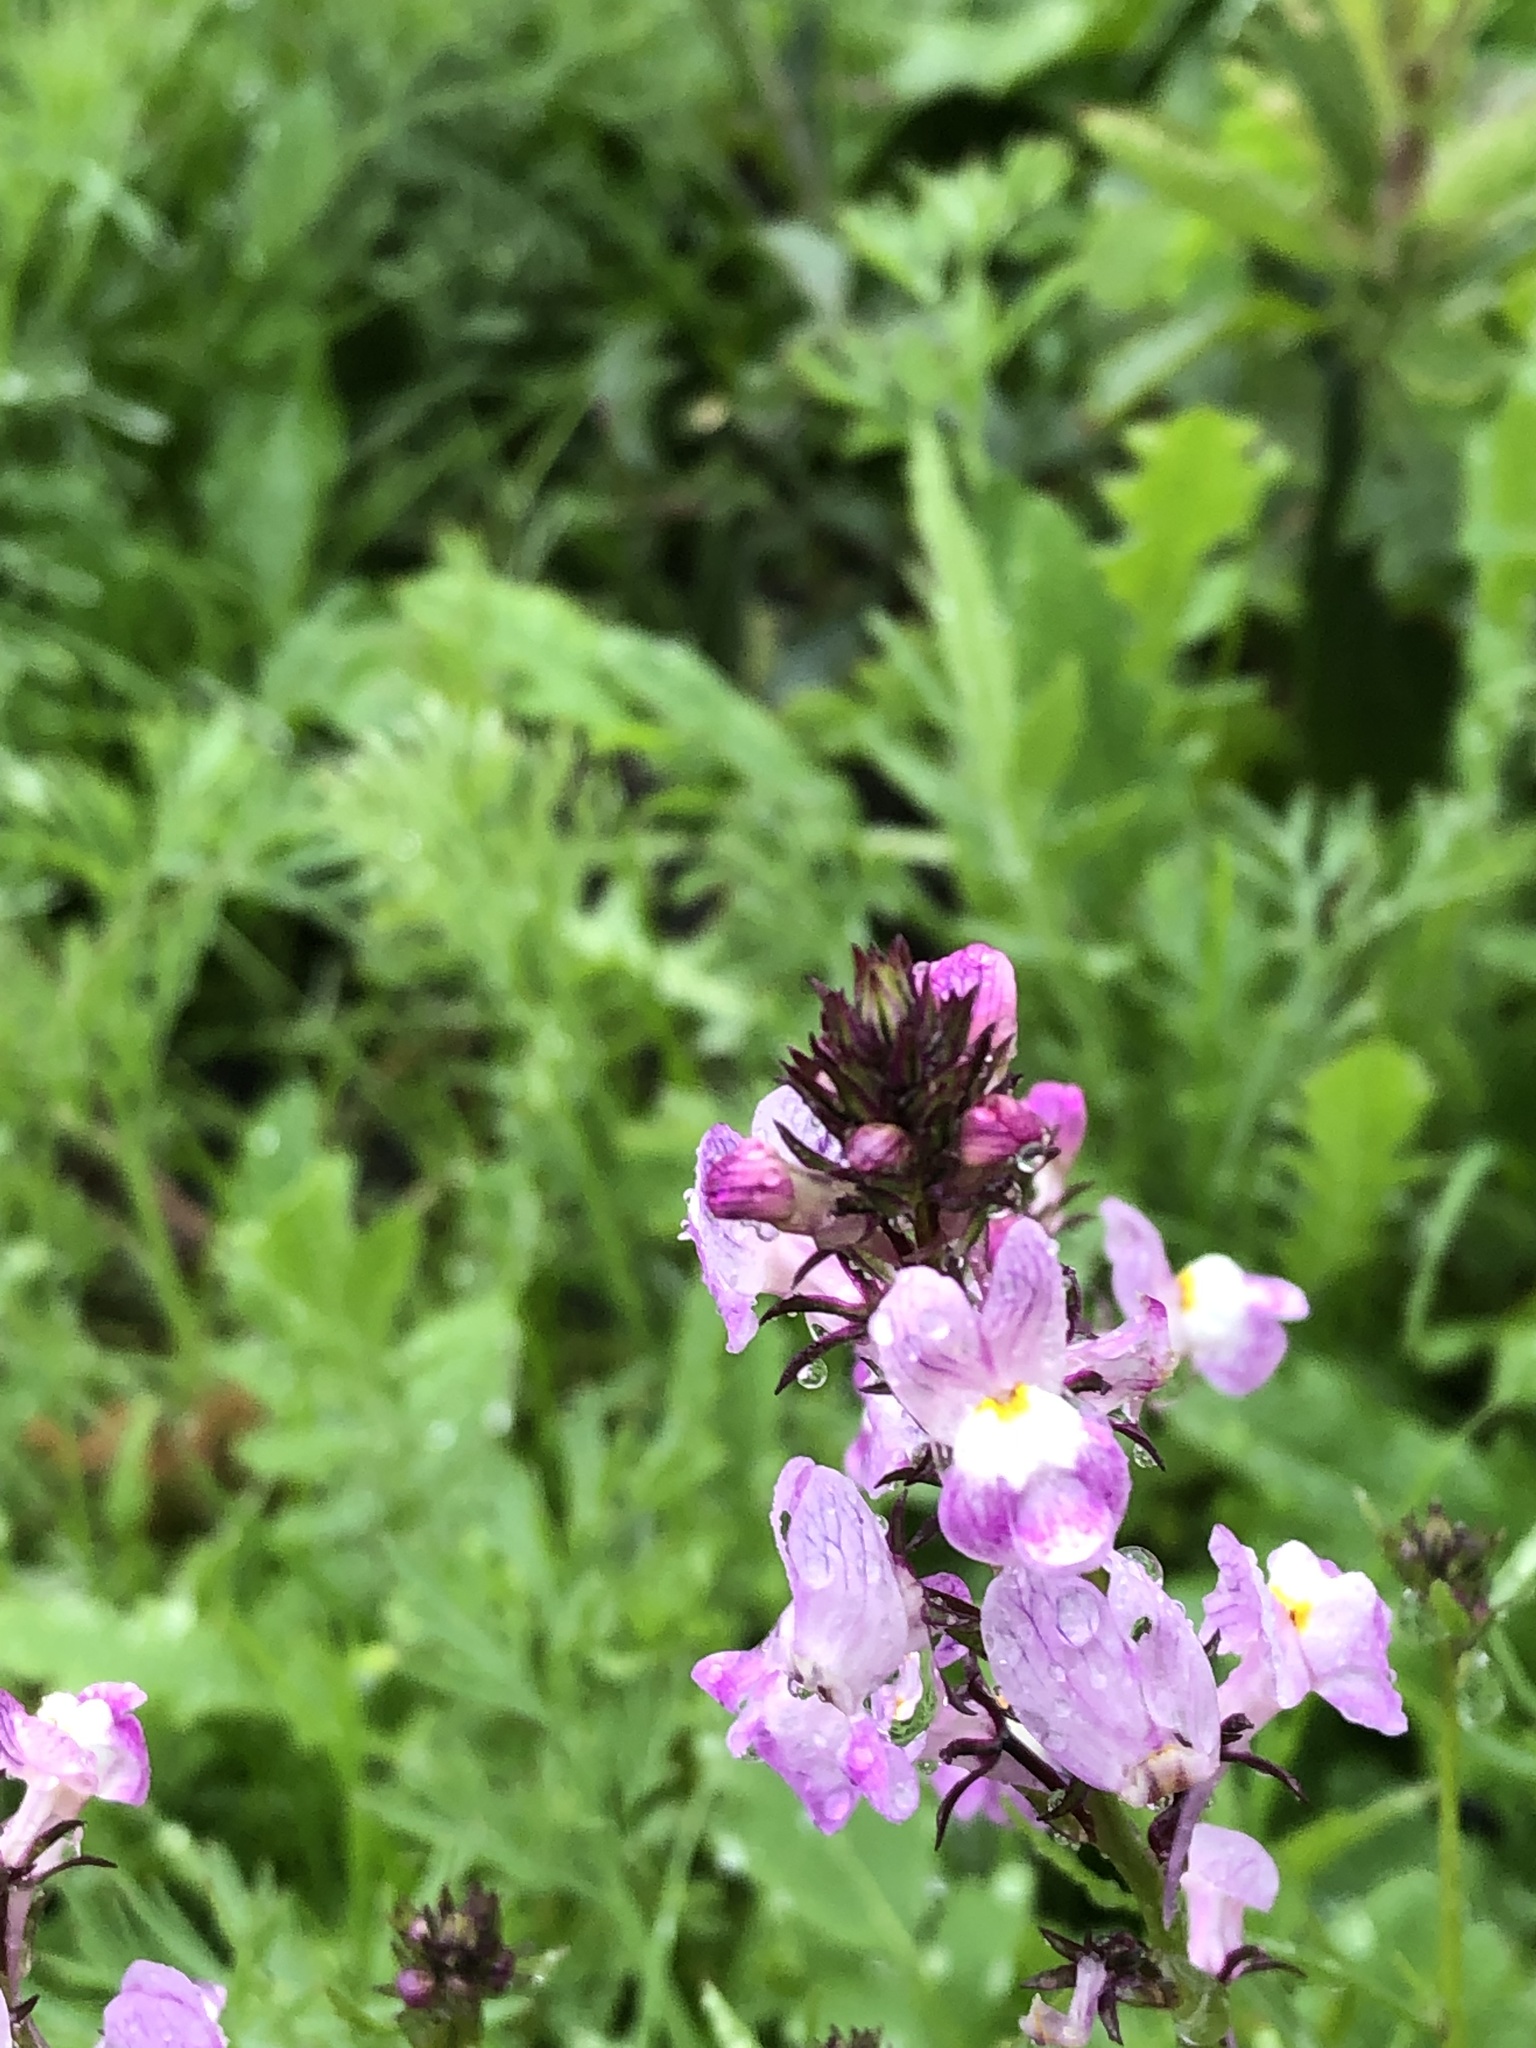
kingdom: Plantae
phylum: Tracheophyta
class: Magnoliopsida
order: Lamiales
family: Plantaginaceae
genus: Linaria
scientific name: Linaria maroccana
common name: Moroccan toadflax
